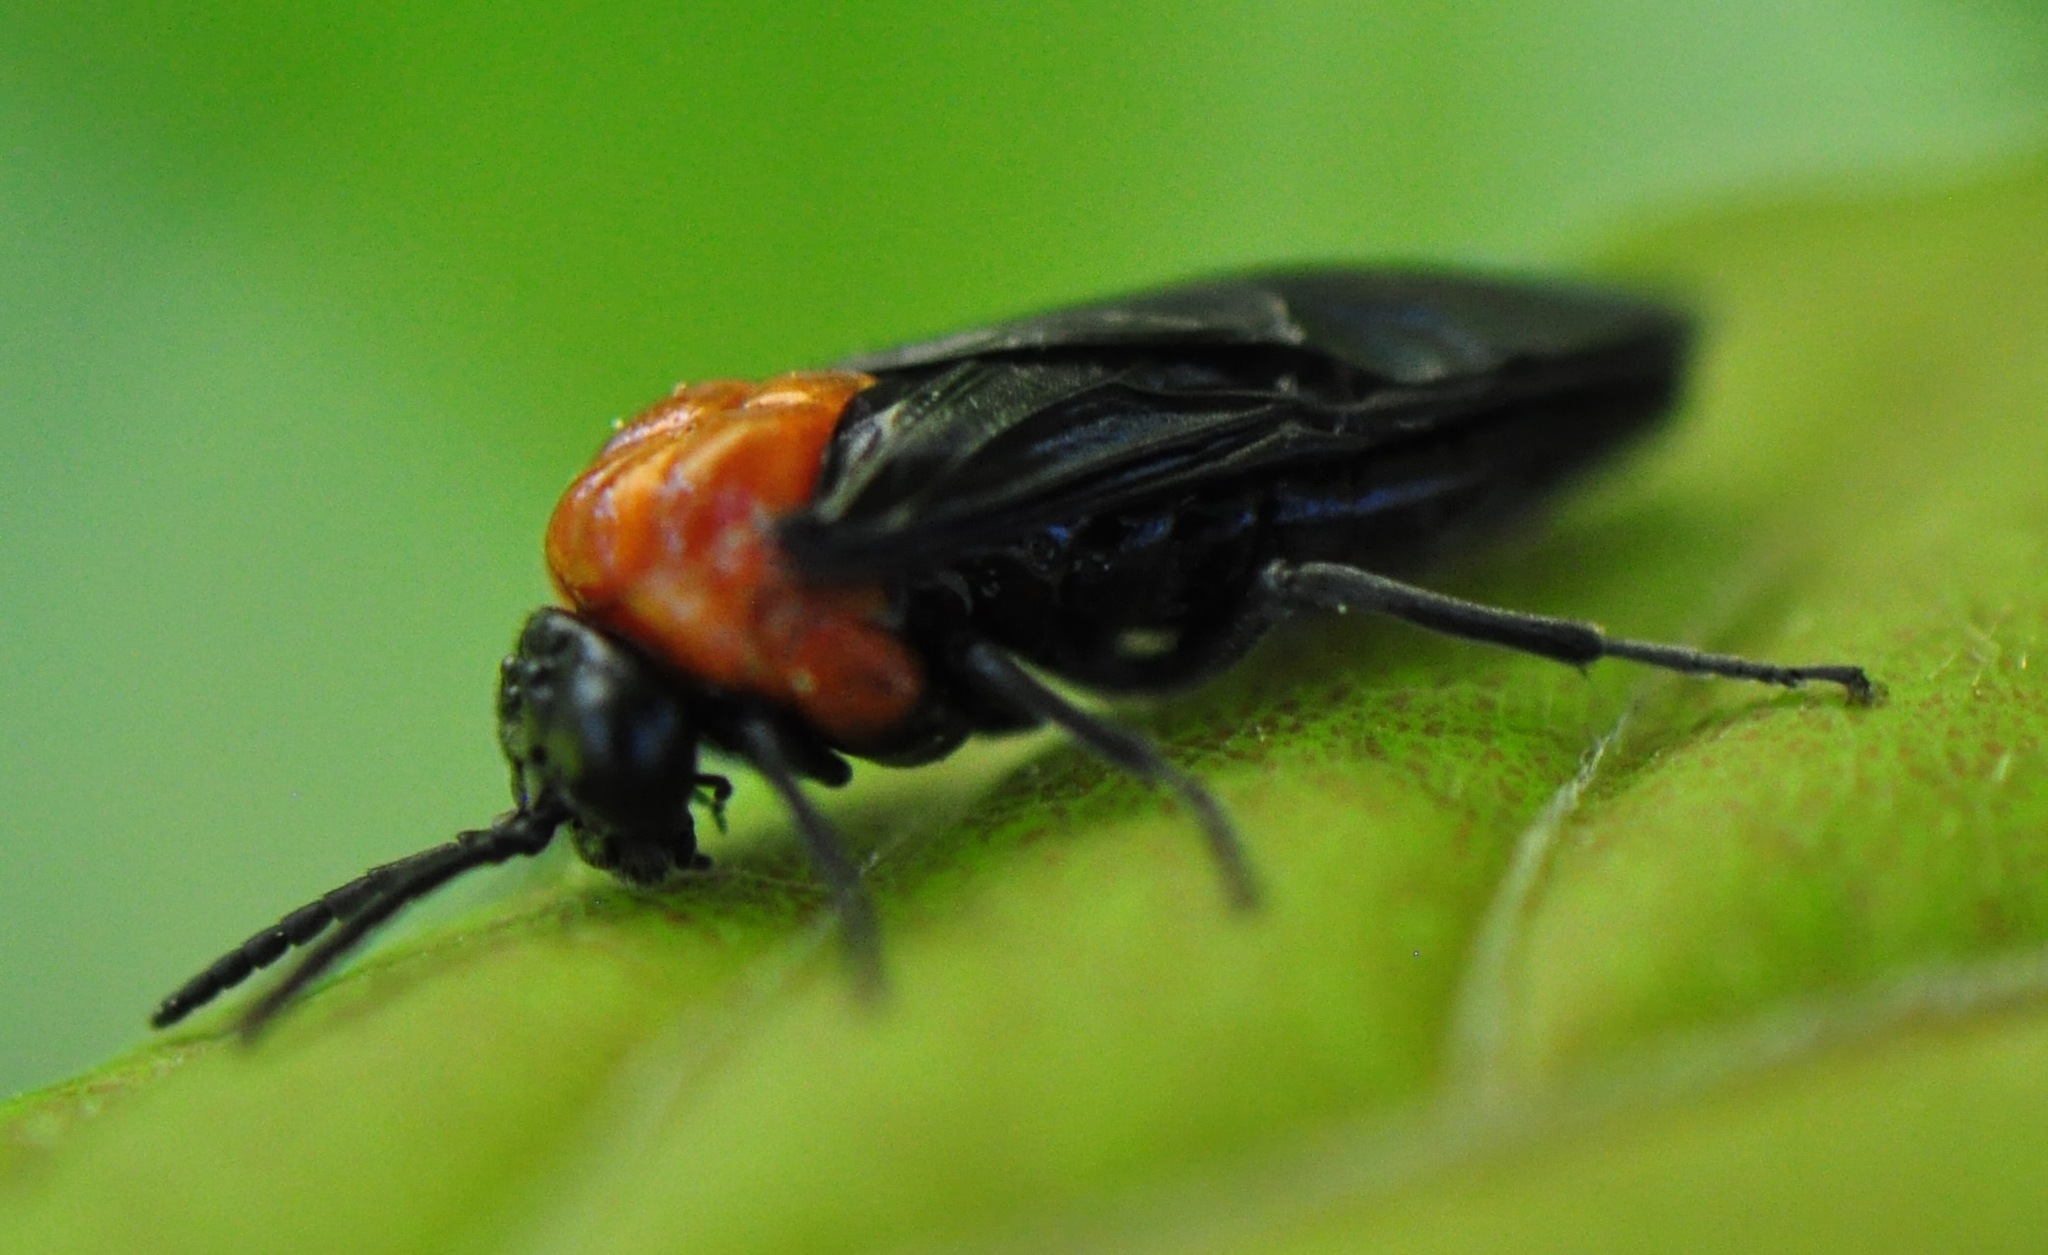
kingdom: Animalia
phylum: Arthropoda
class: Insecta
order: Hymenoptera
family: Tenthredinidae
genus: Tethida
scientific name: Tethida barda
